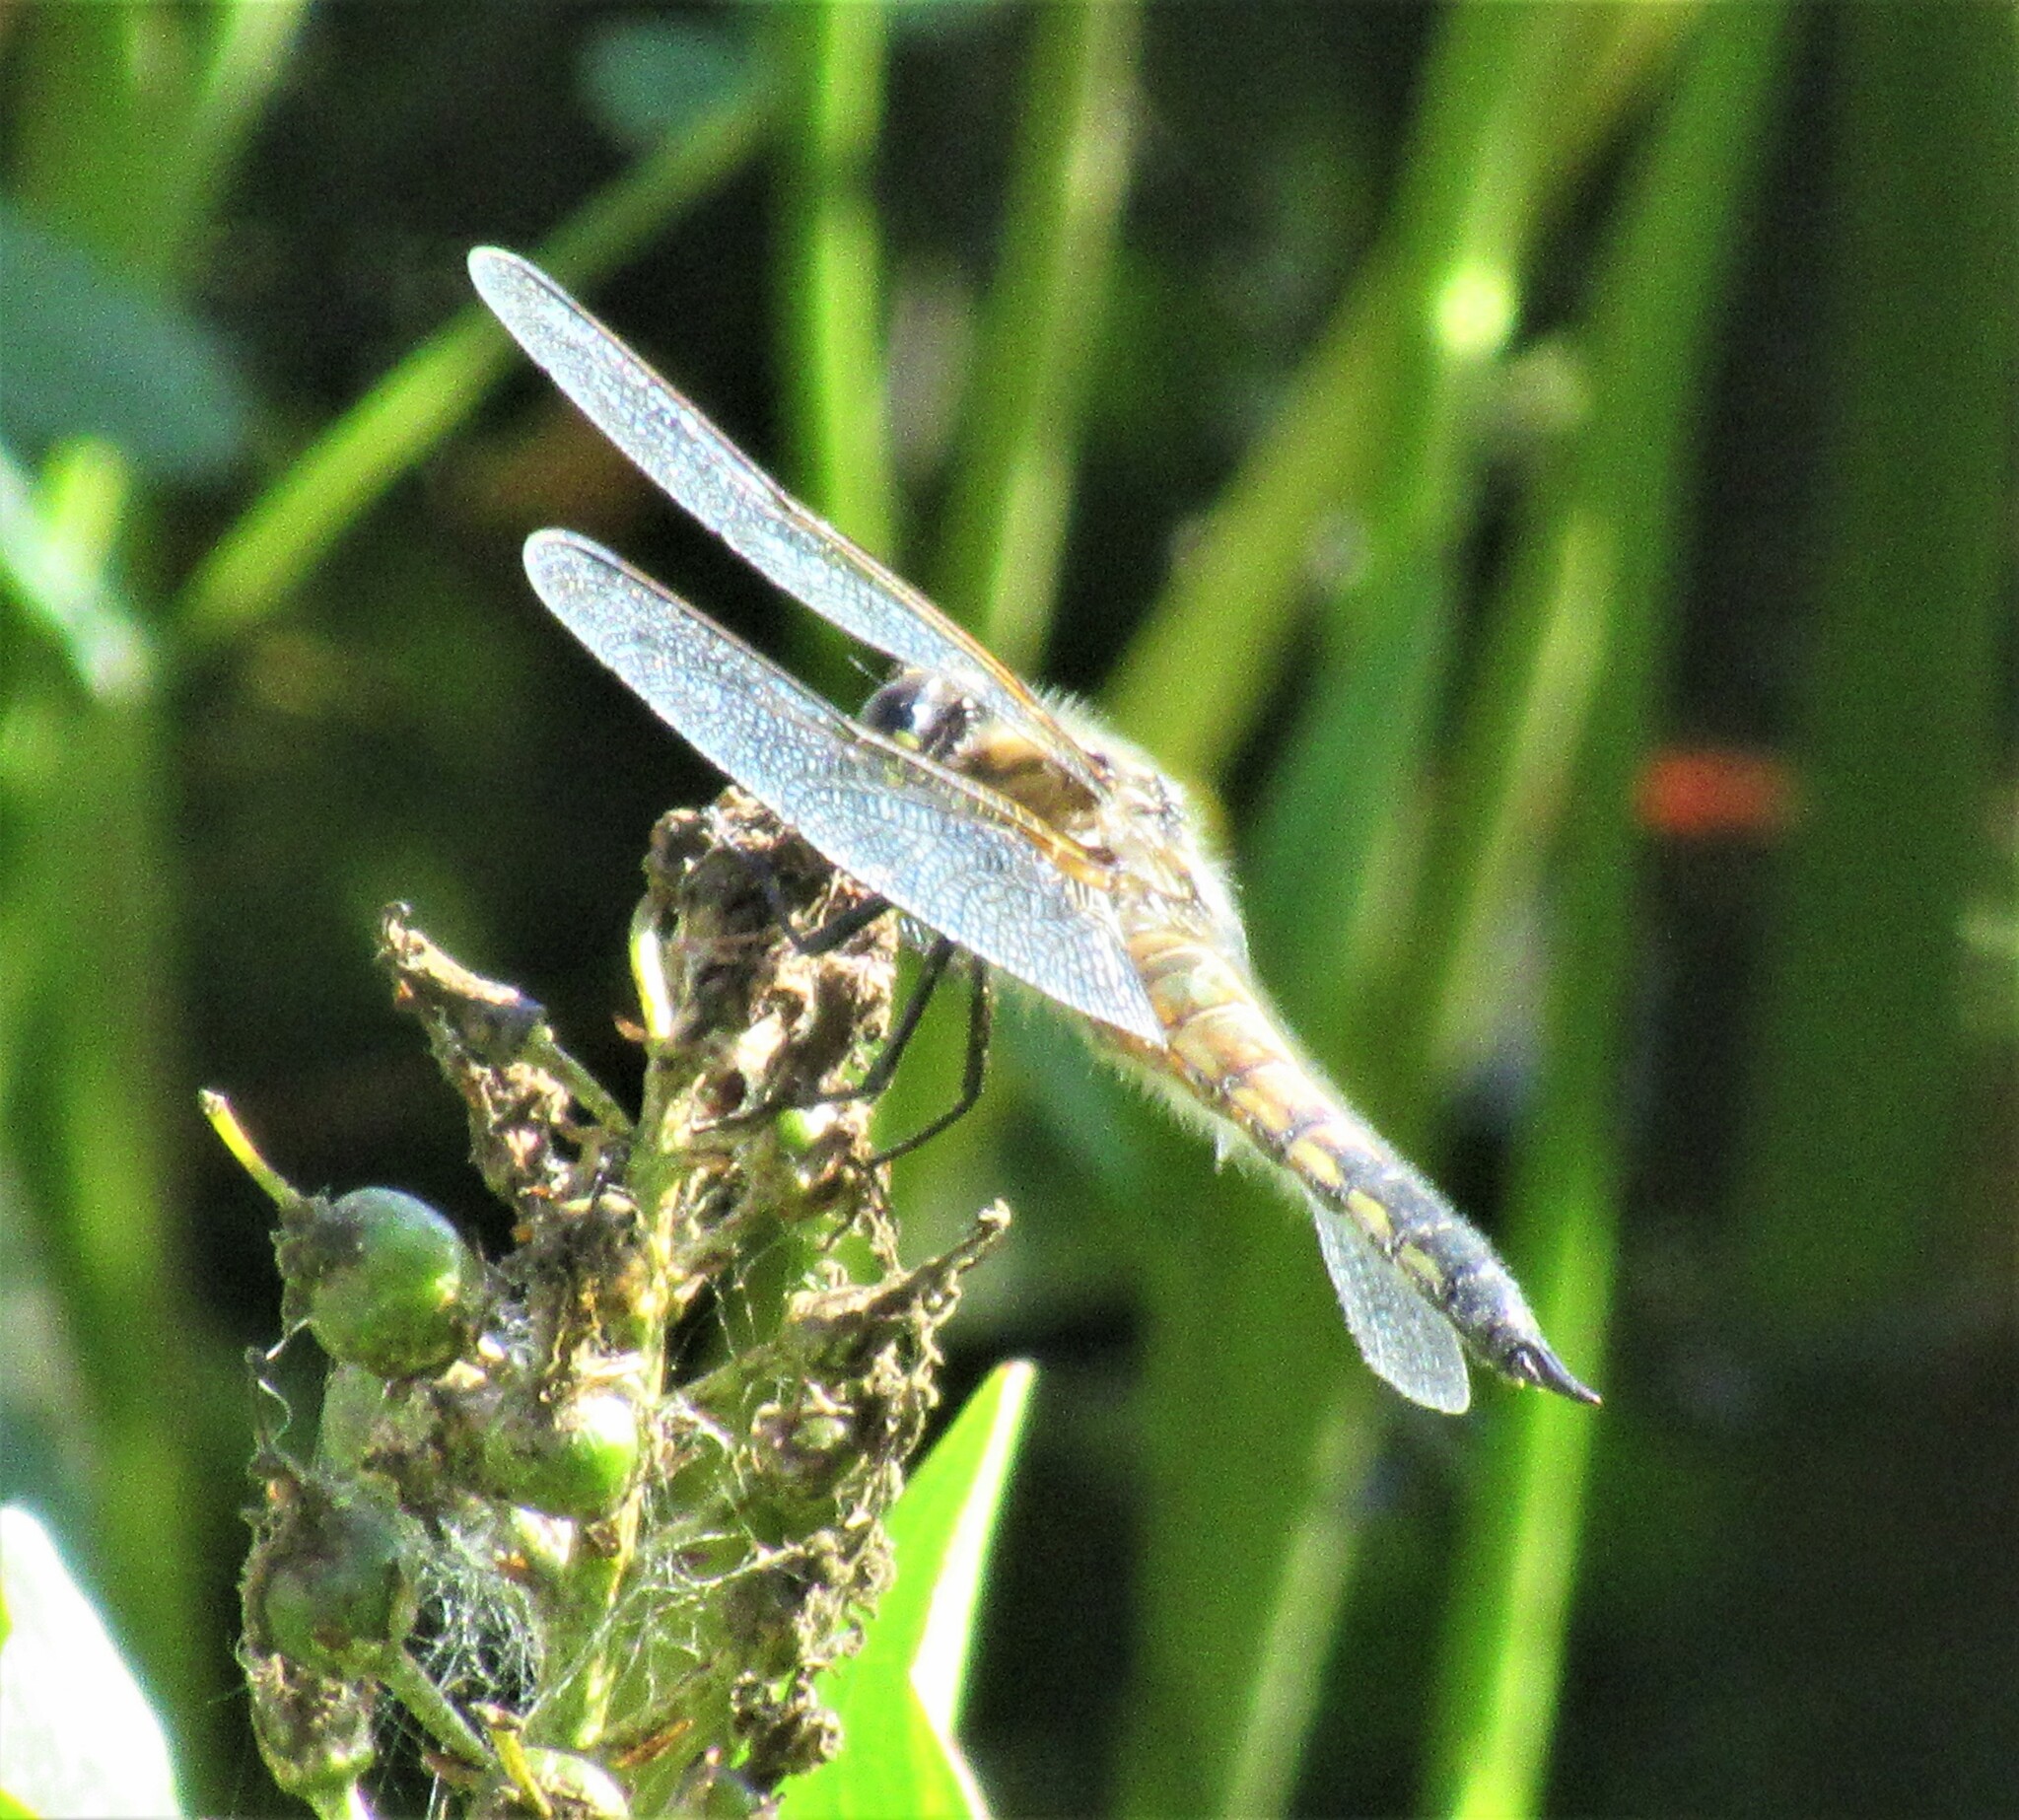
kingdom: Animalia
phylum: Arthropoda
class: Insecta
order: Odonata
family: Libellulidae
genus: Libellula
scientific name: Libellula quadrimaculata
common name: Four-spotted chaser
